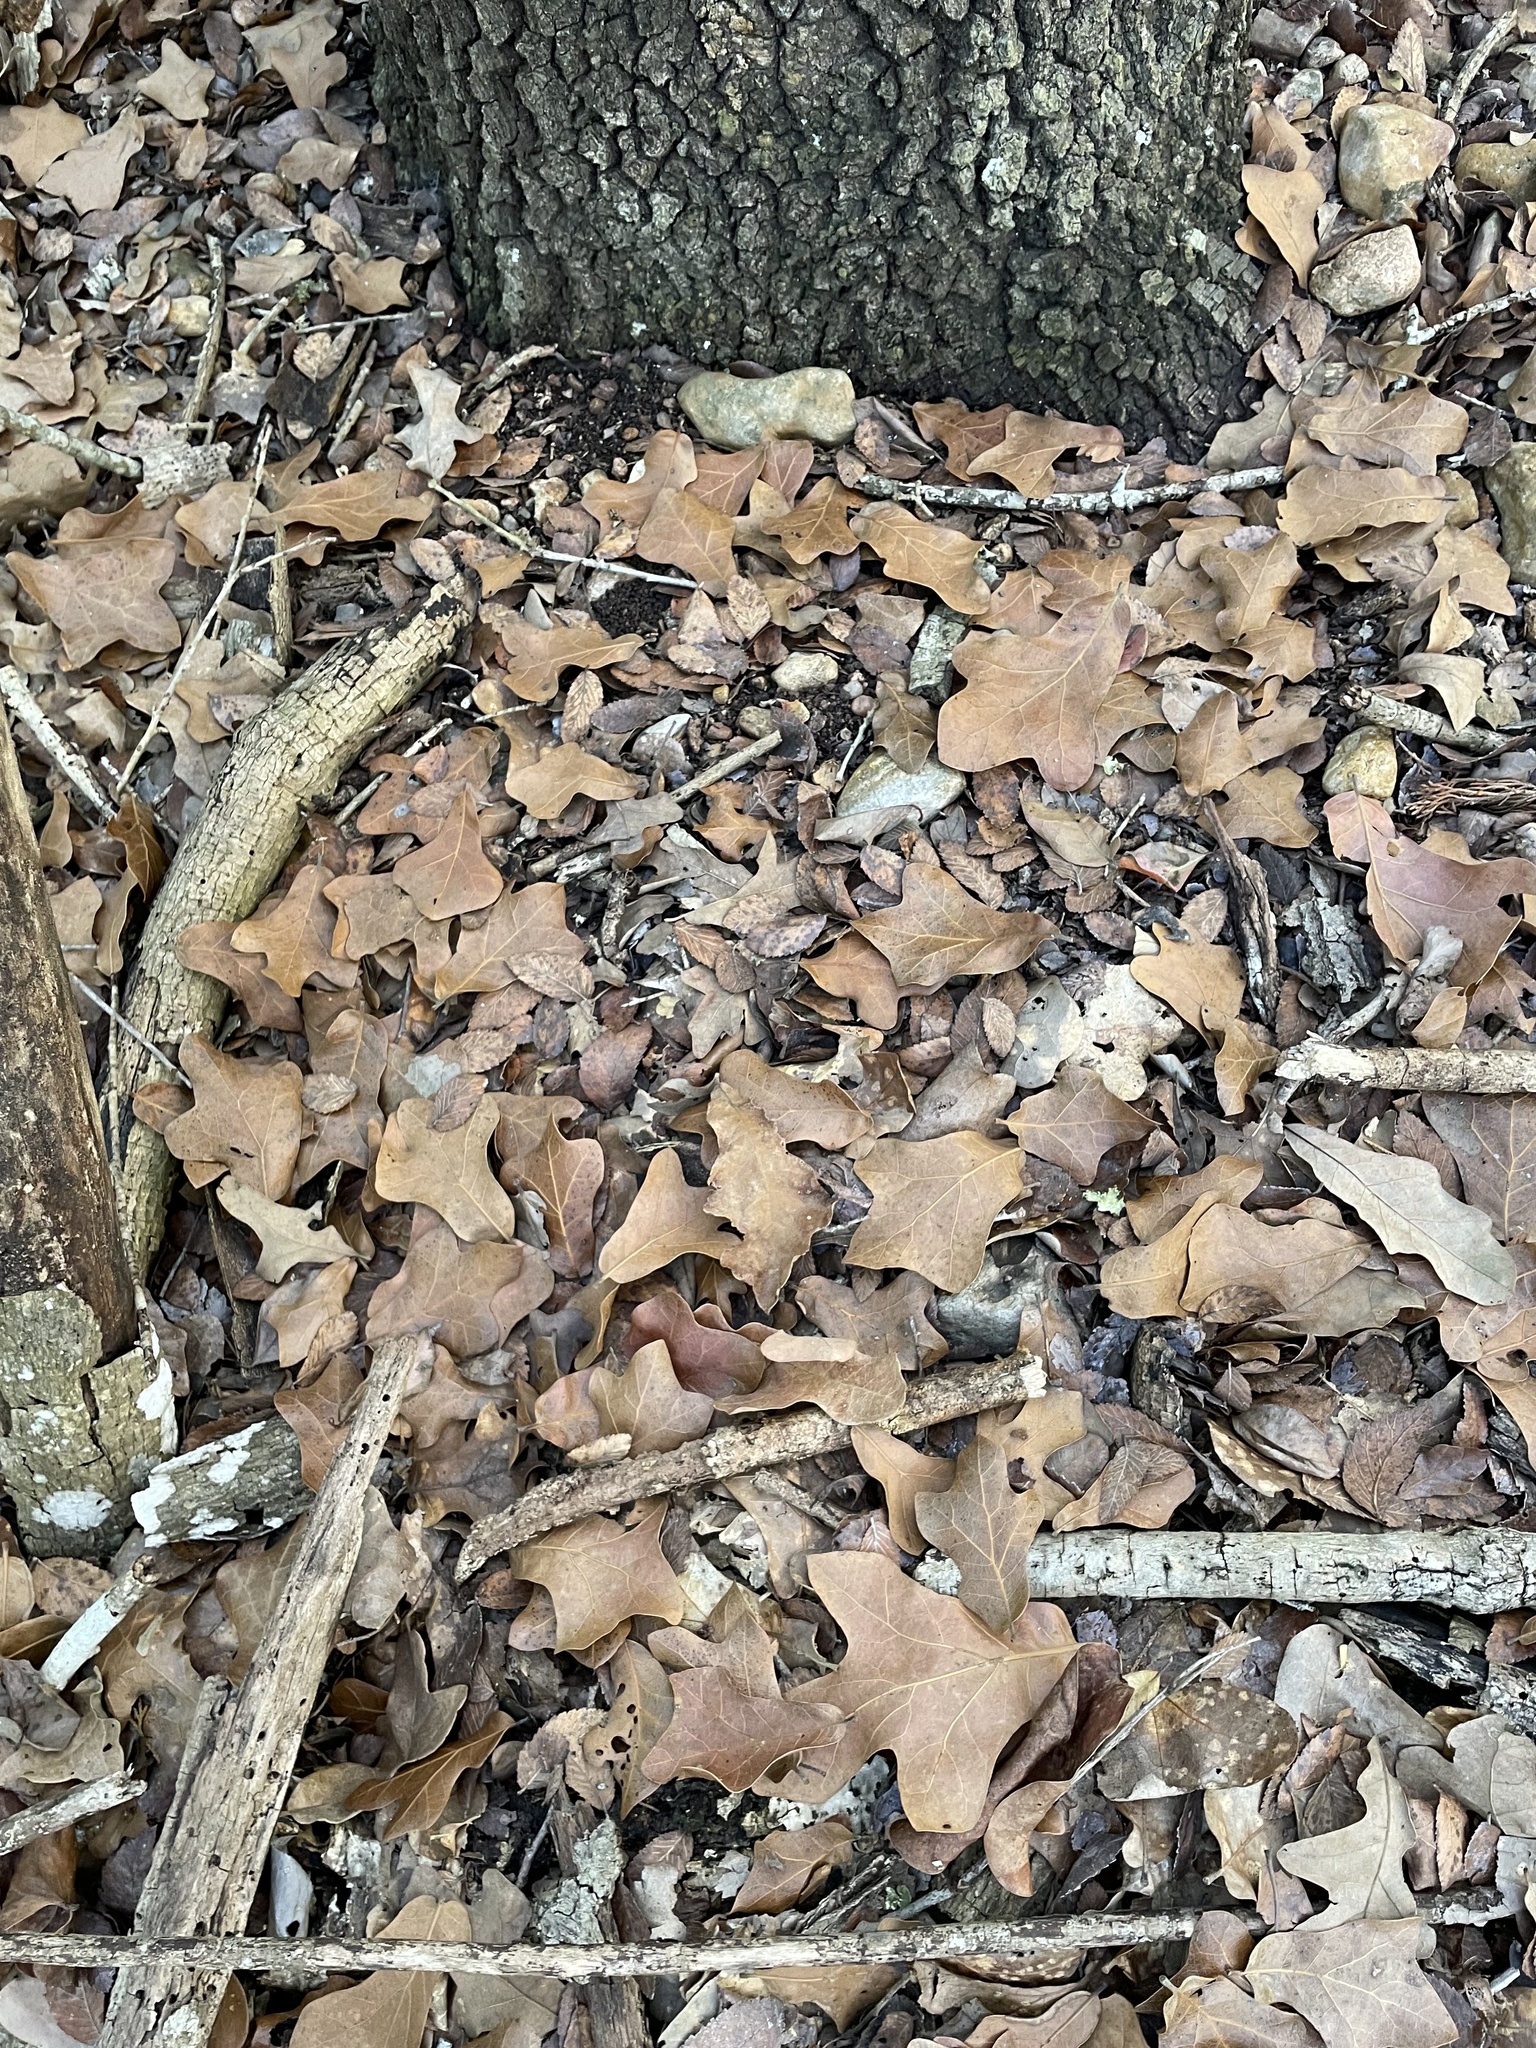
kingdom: Plantae
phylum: Tracheophyta
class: Magnoliopsida
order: Fagales
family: Fagaceae
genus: Quercus
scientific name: Quercus marilandica
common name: Blackjack oak
